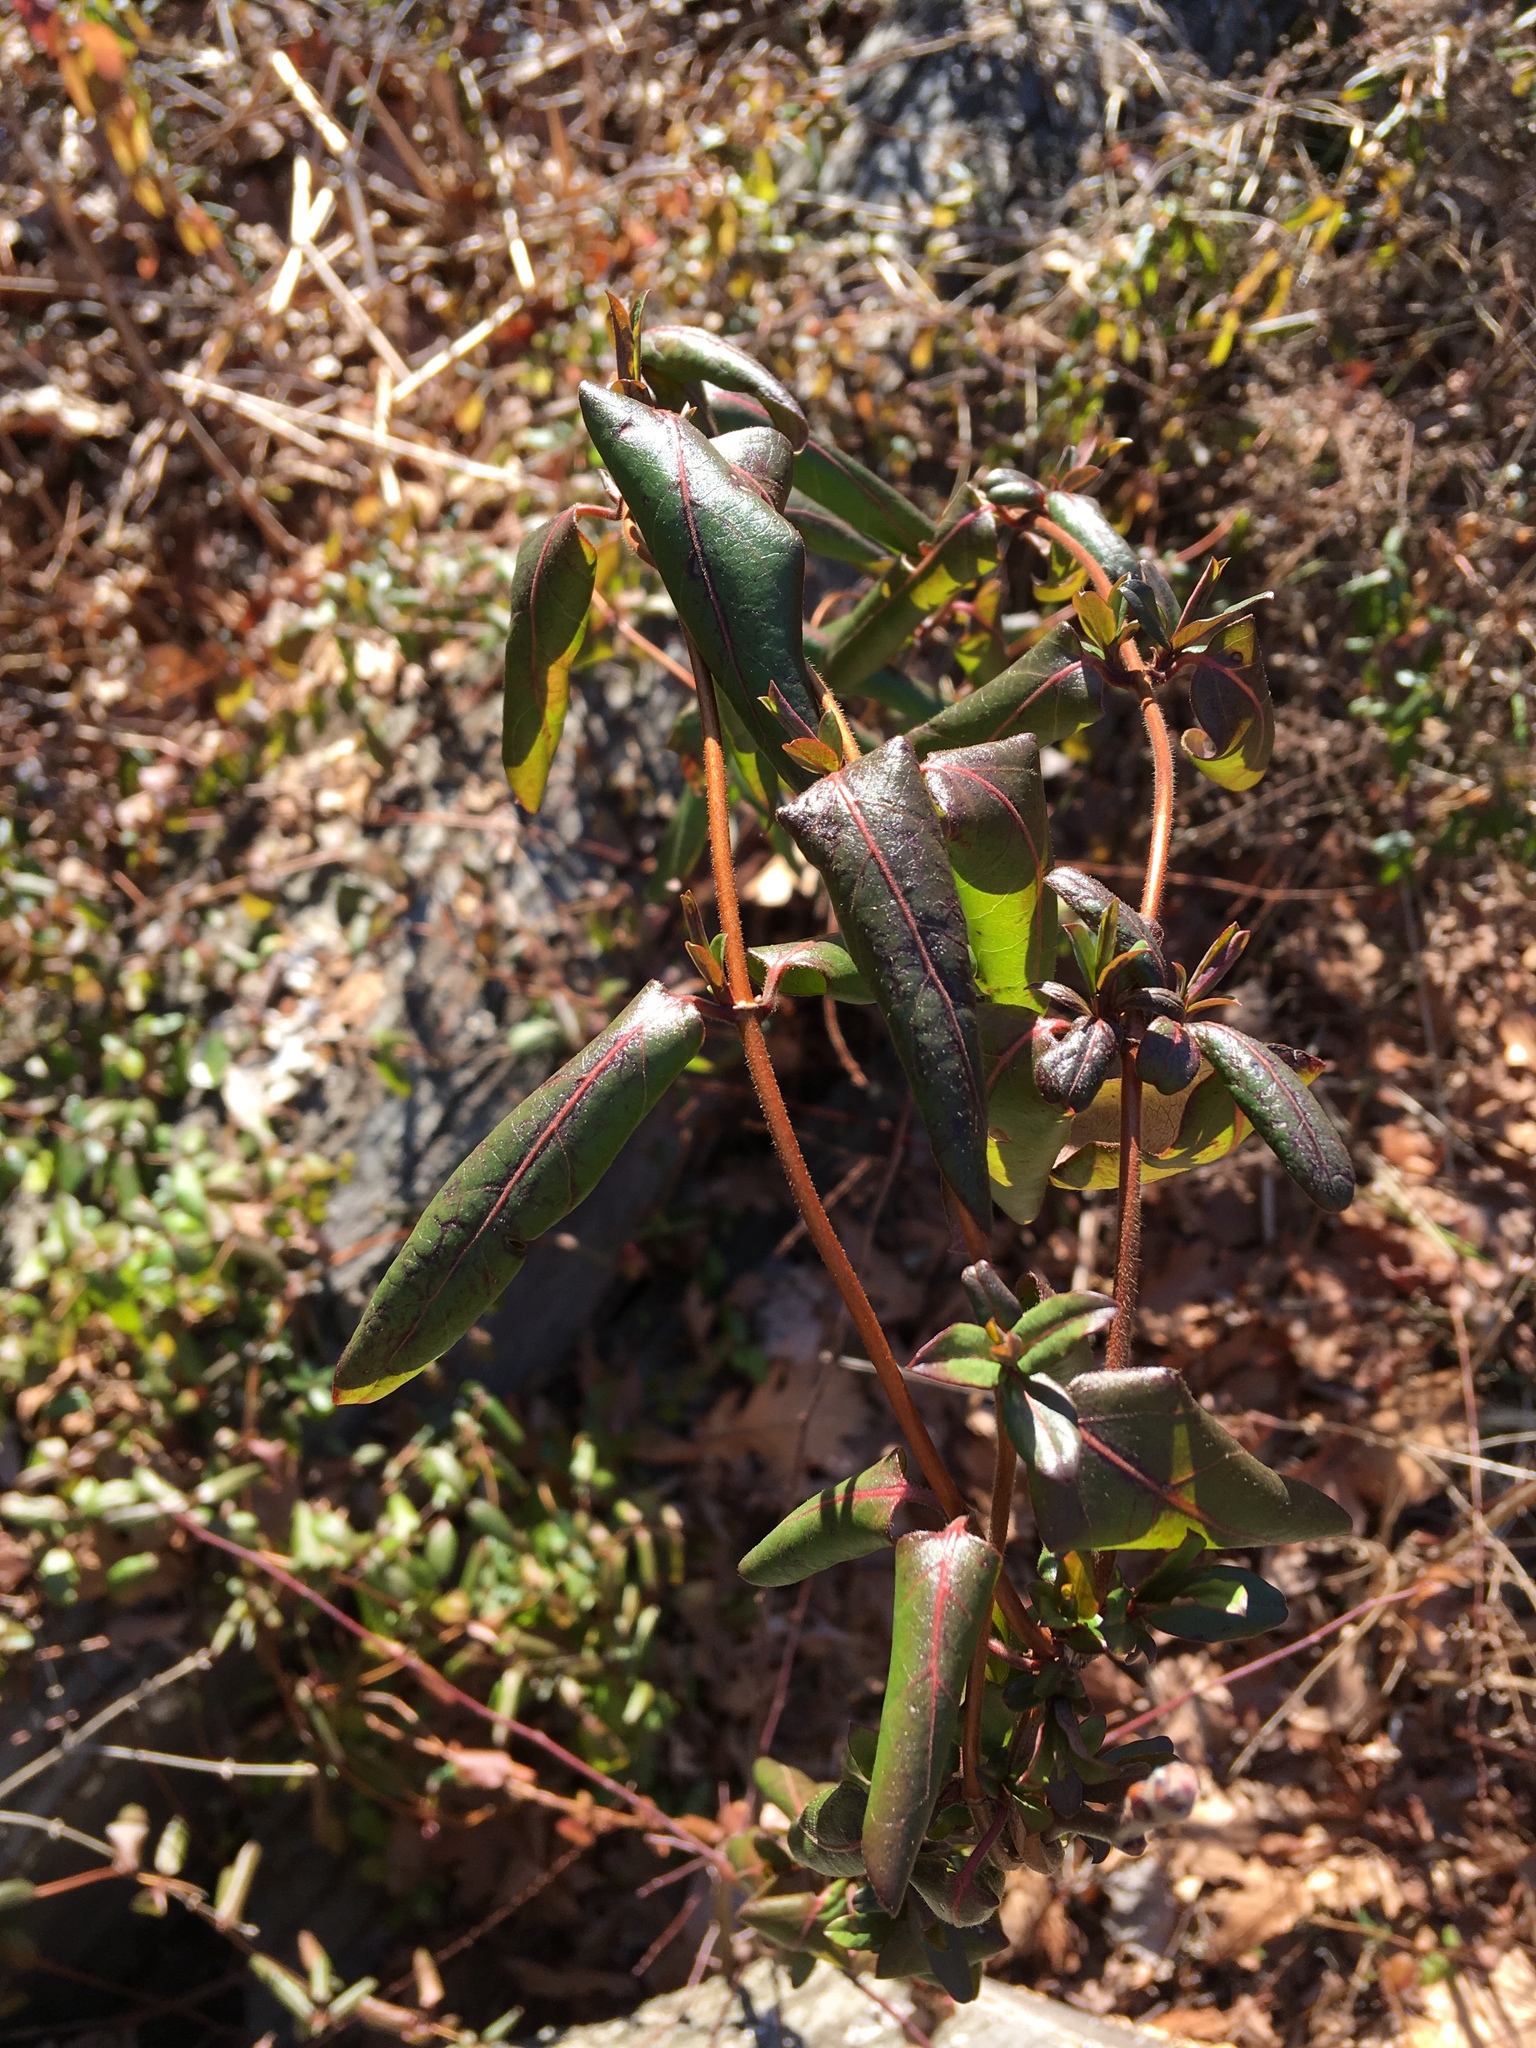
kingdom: Plantae
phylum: Tracheophyta
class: Magnoliopsida
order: Dipsacales
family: Caprifoliaceae
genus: Lonicera
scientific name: Lonicera japonica
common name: Japanese honeysuckle
